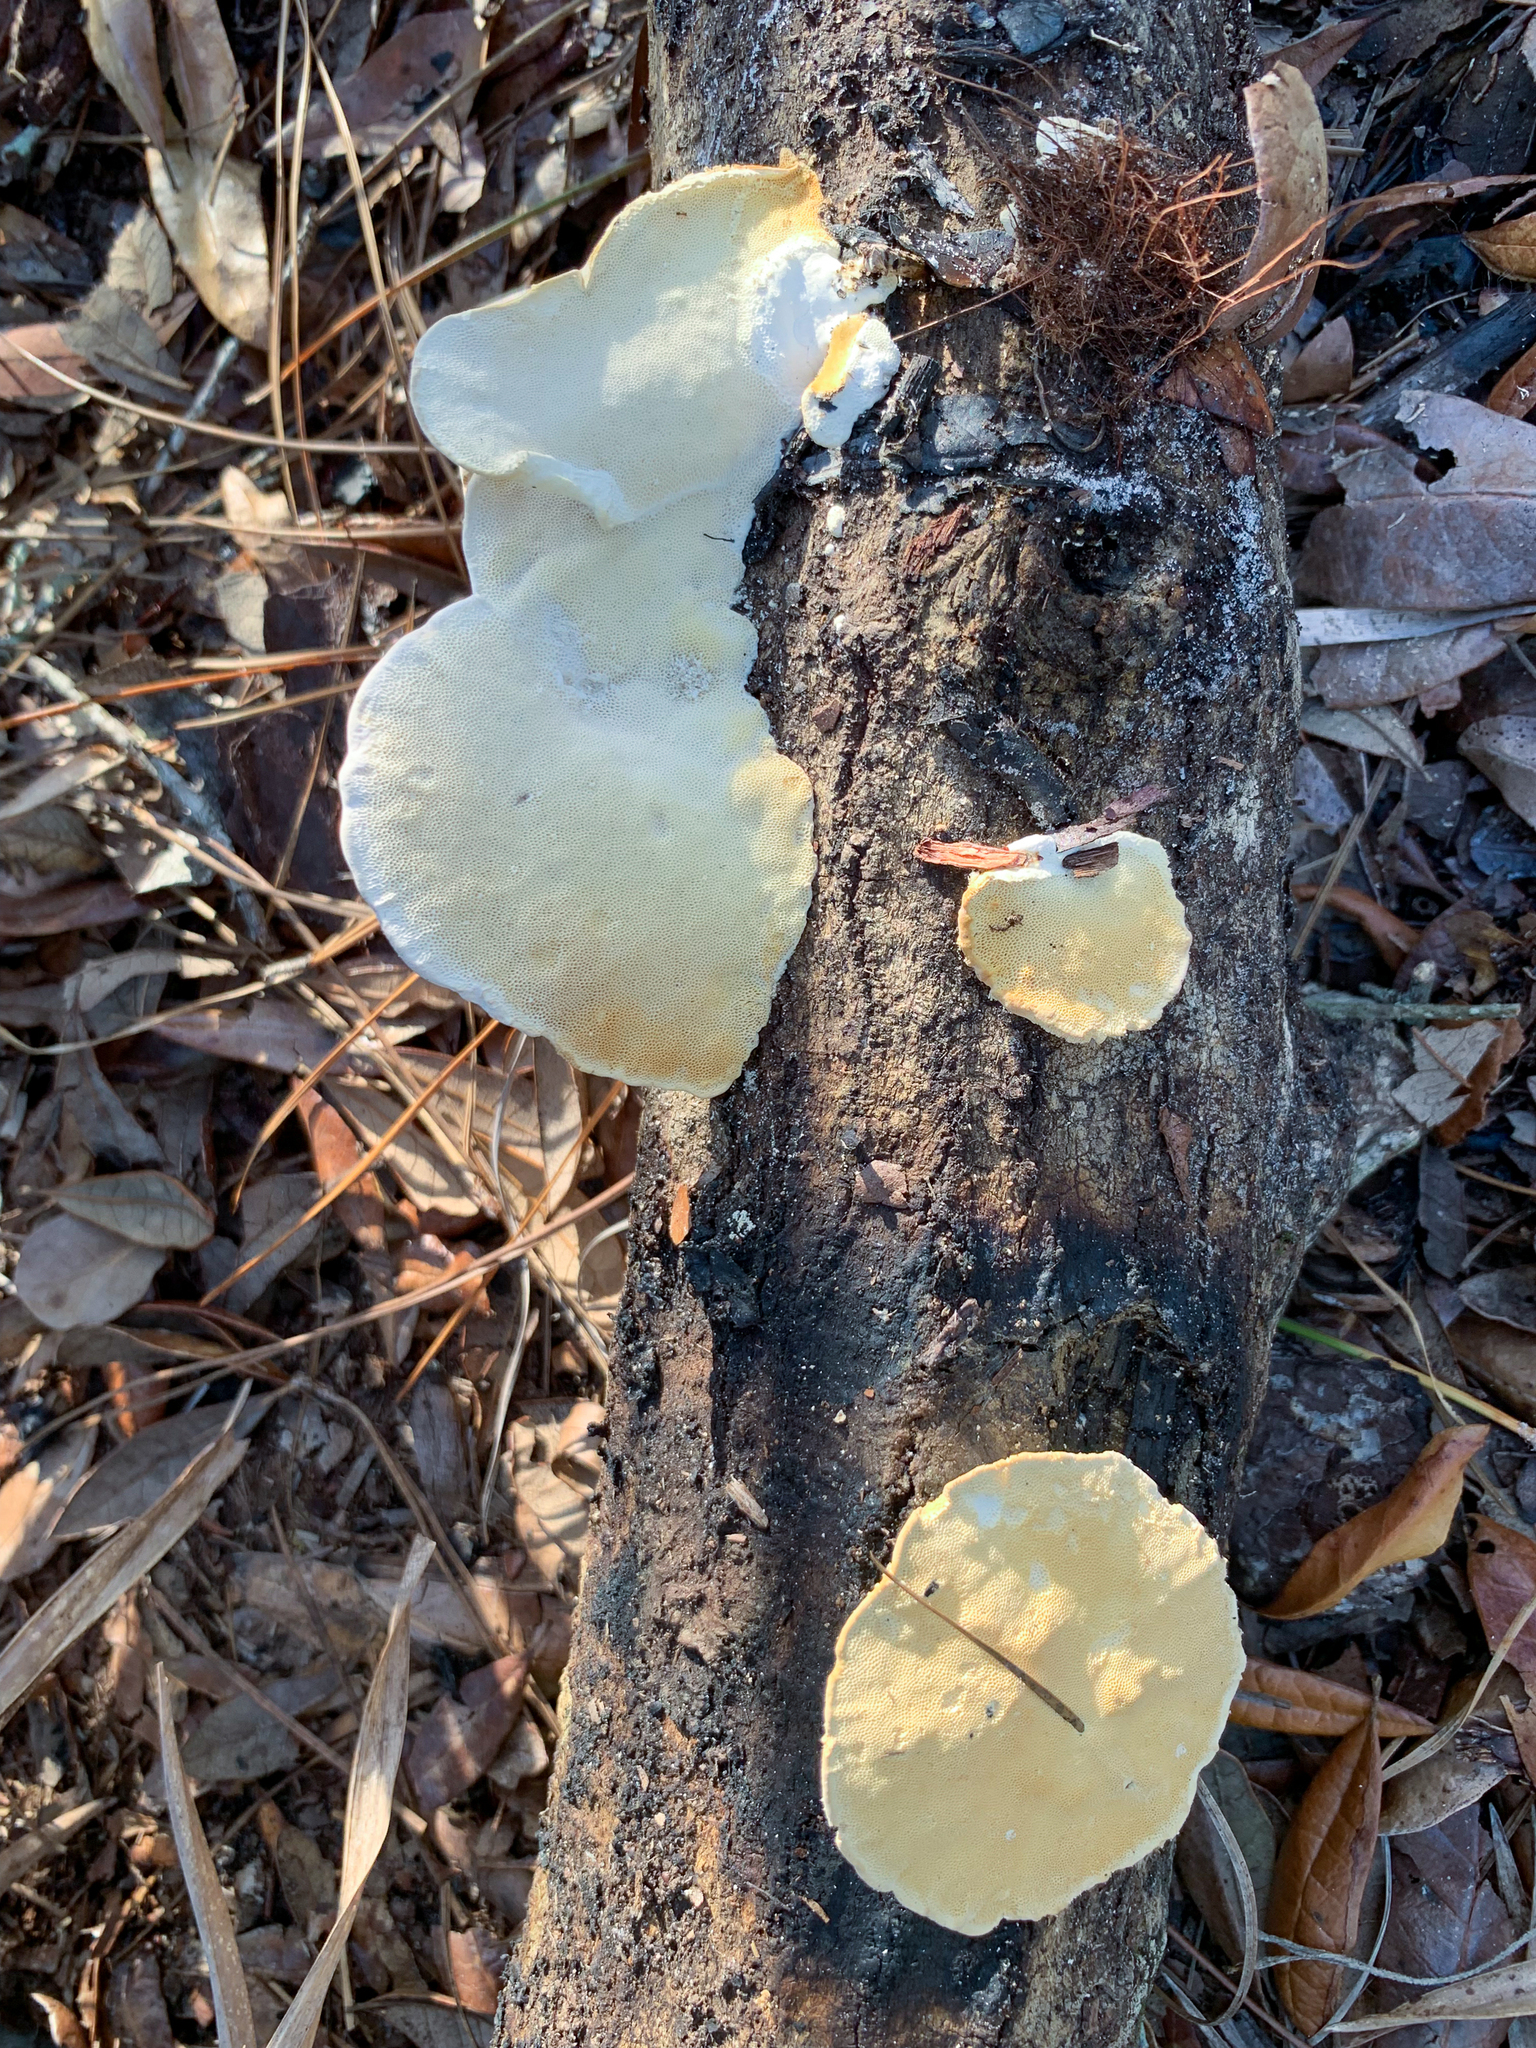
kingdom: Fungi
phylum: Basidiomycota
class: Agaricomycetes
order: Russulales
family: Stereaceae
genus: Stereum
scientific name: Stereum lobatum
